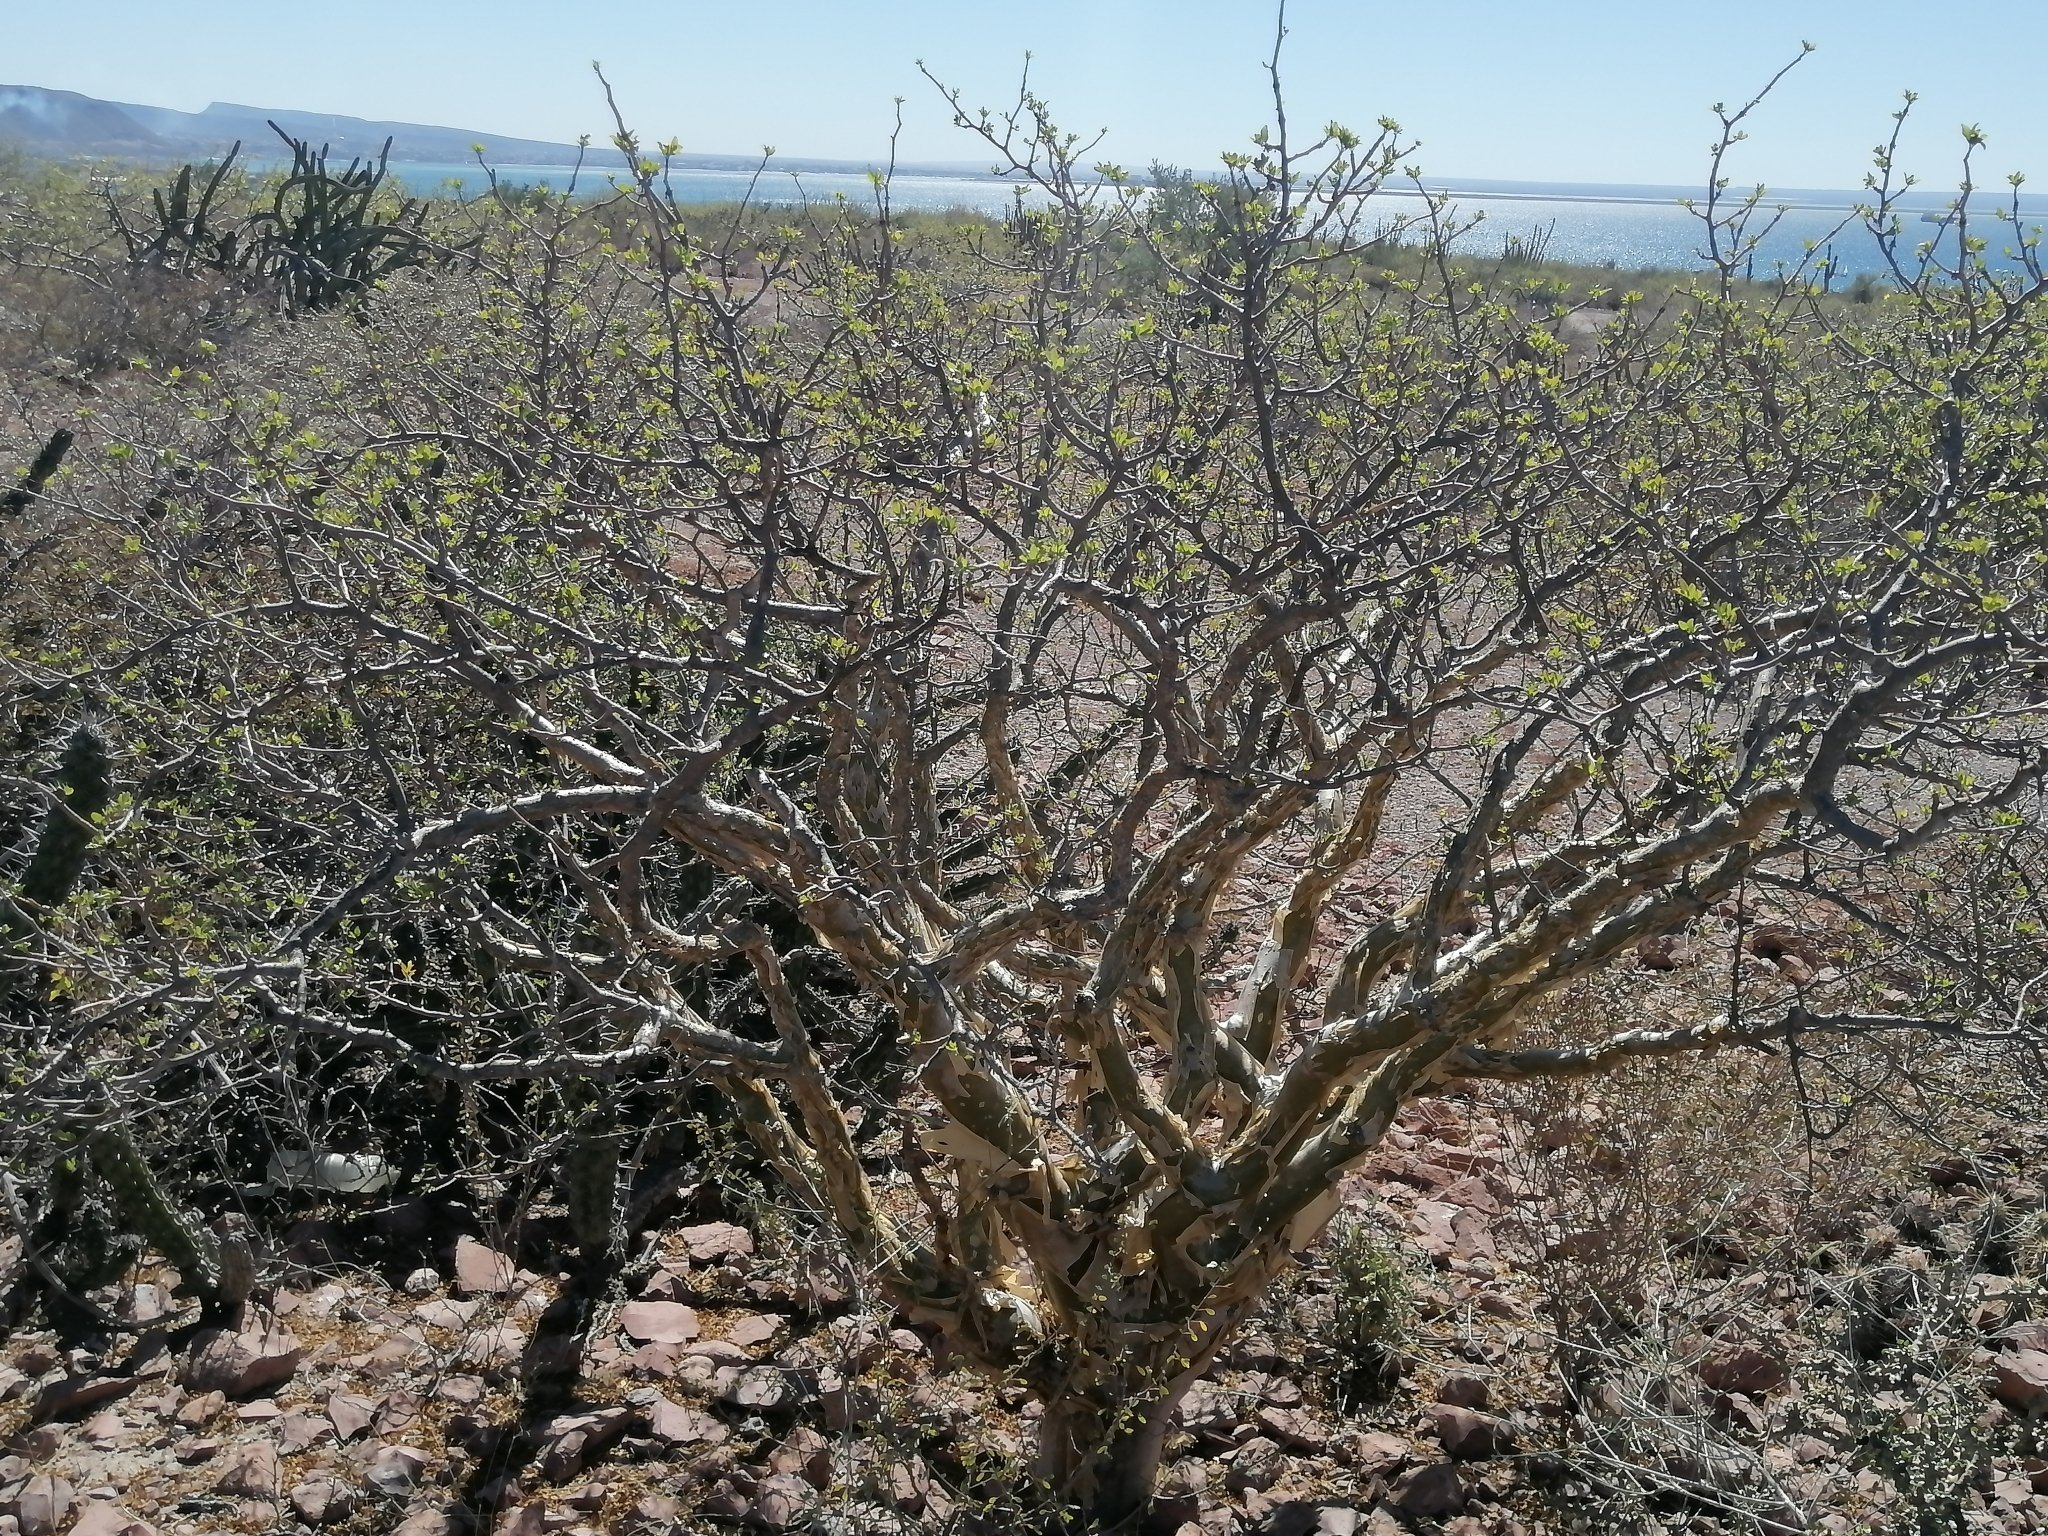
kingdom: Plantae
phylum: Tracheophyta
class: Magnoliopsida
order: Sapindales
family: Burseraceae
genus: Bursera
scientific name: Bursera fagaroides
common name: Elephant tree
